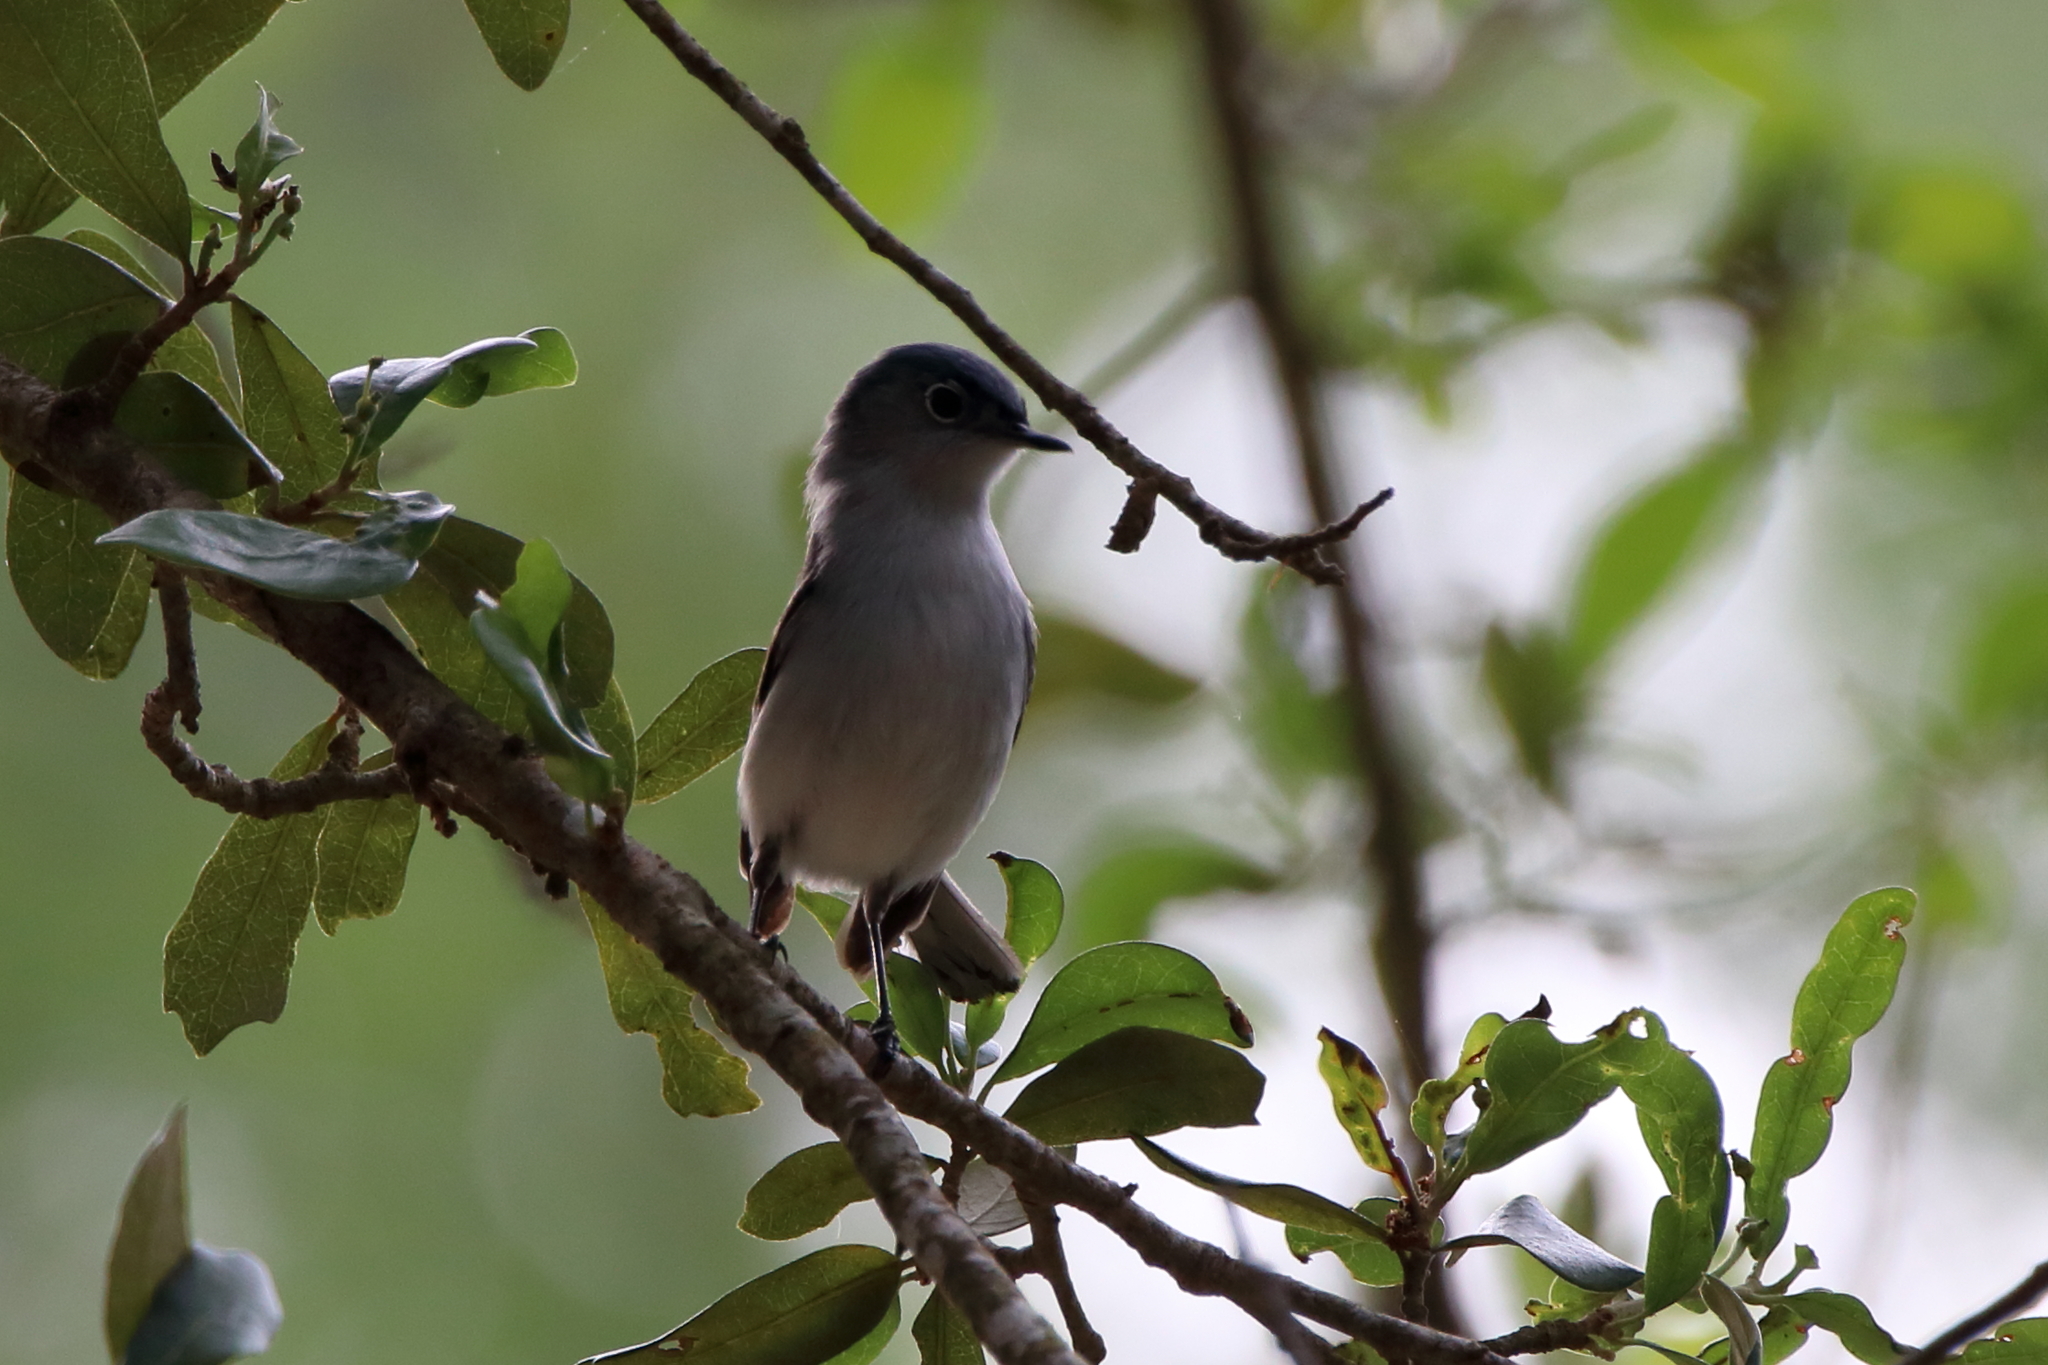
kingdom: Animalia
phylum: Chordata
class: Aves
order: Passeriformes
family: Polioptilidae
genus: Polioptila
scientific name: Polioptila caerulea
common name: Blue-gray gnatcatcher
